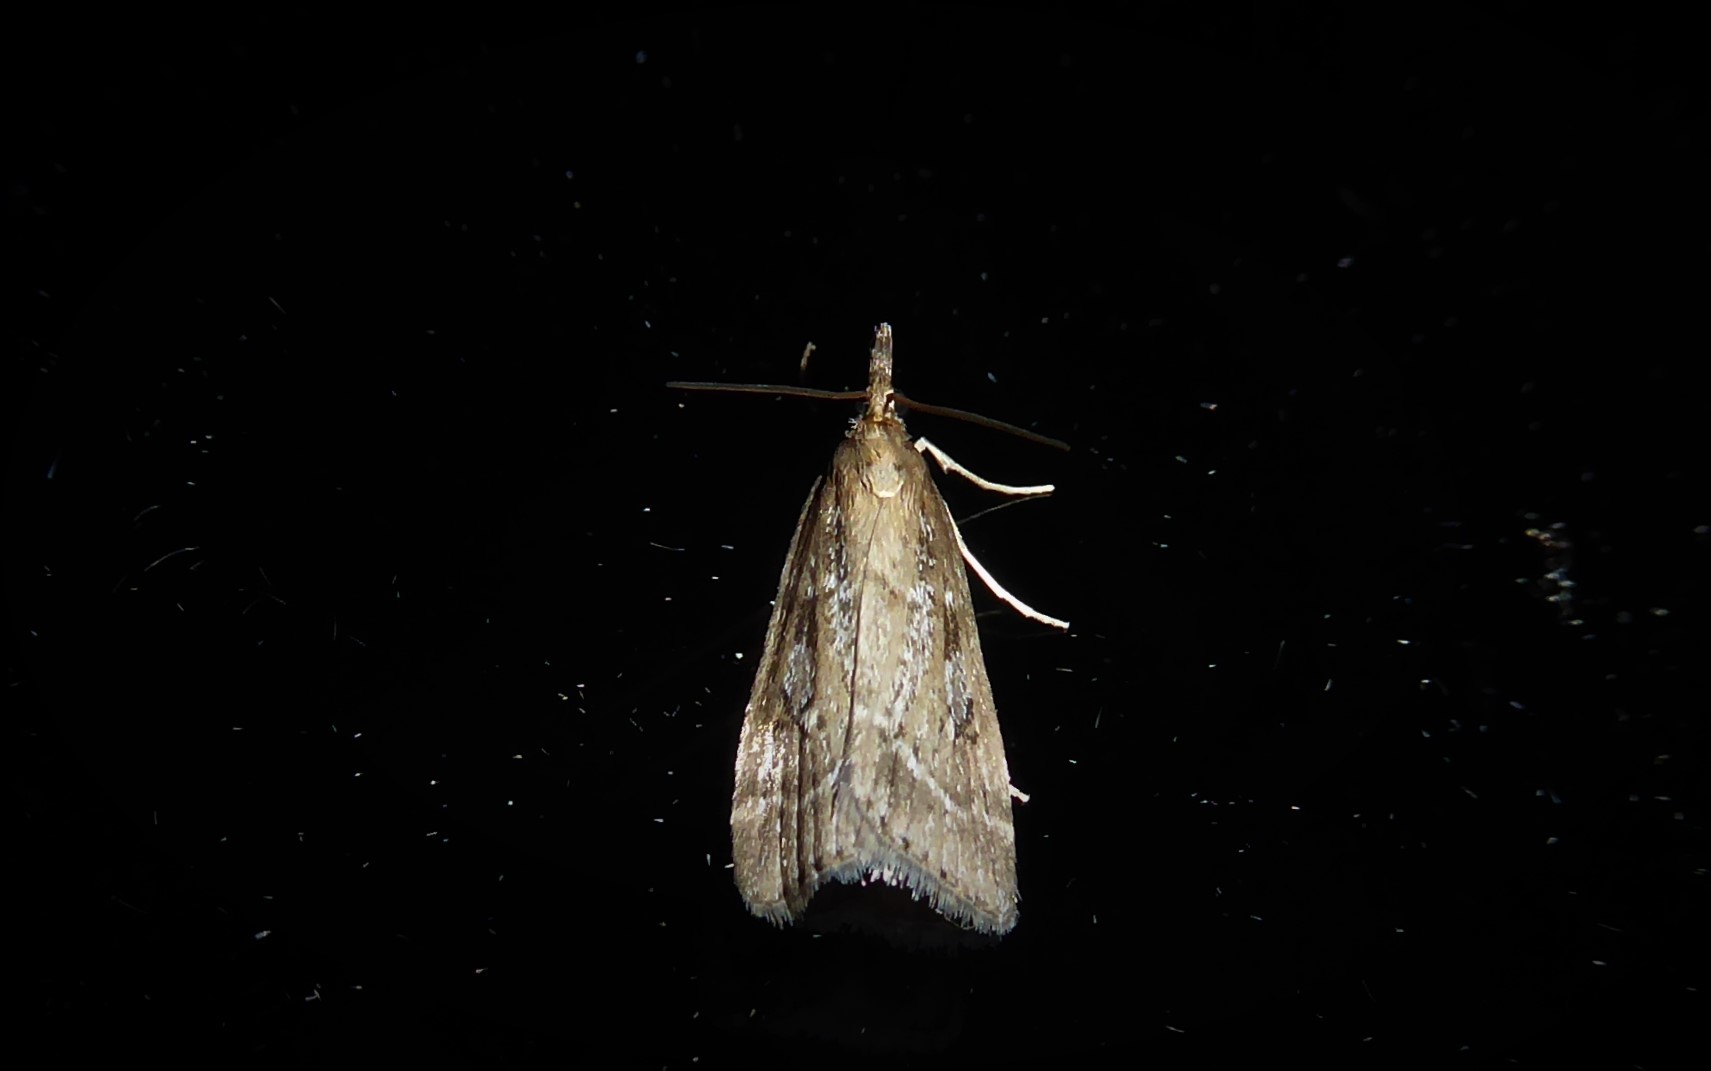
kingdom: Animalia
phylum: Arthropoda
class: Insecta
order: Lepidoptera
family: Crambidae
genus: Eudonia
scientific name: Eudonia octophora
